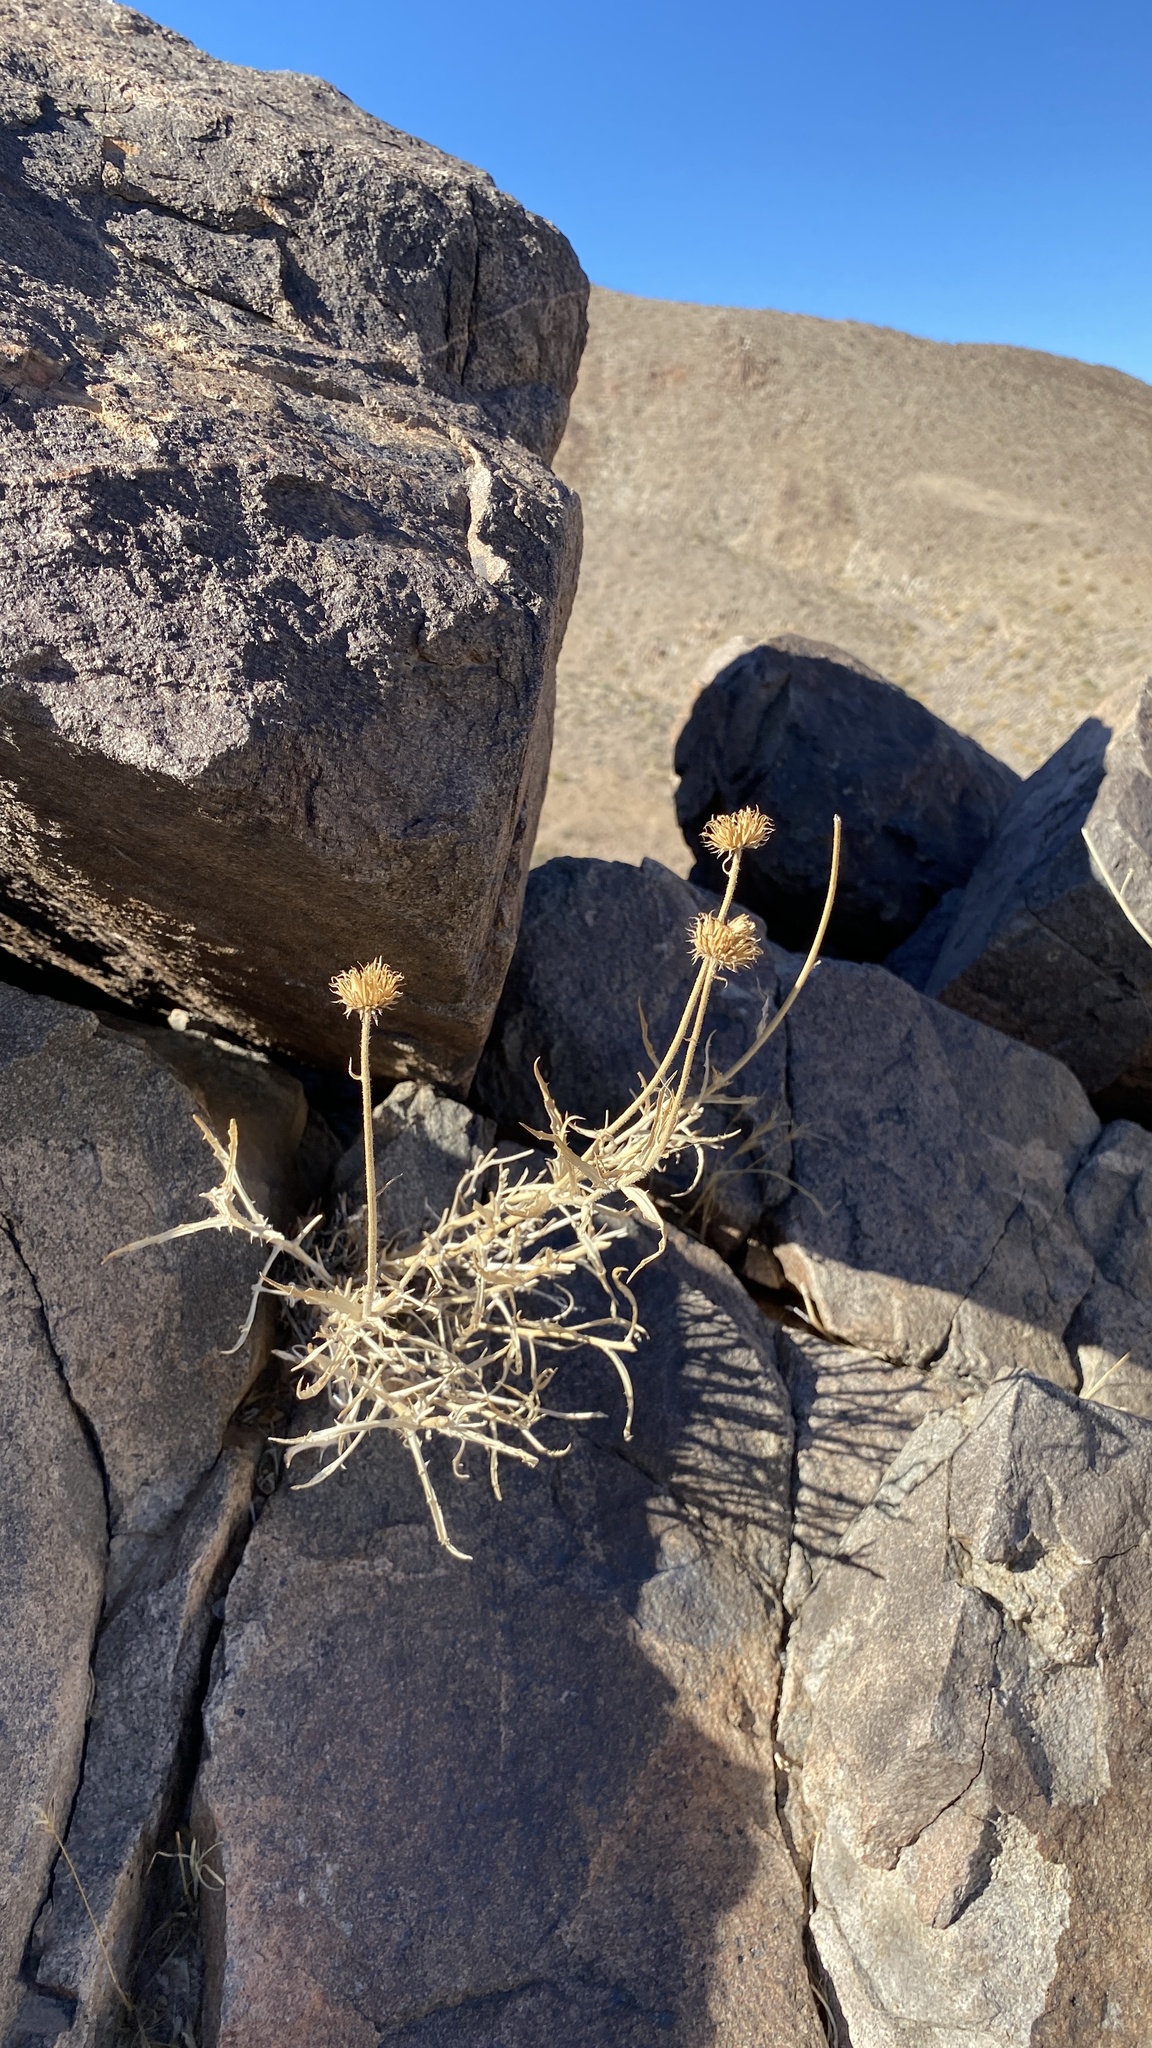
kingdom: Plantae
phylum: Tracheophyta
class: Magnoliopsida
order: Asterales
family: Asteraceae
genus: Xylorhiza
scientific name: Xylorhiza tortifolia
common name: Hurt-leaf woody-aster
